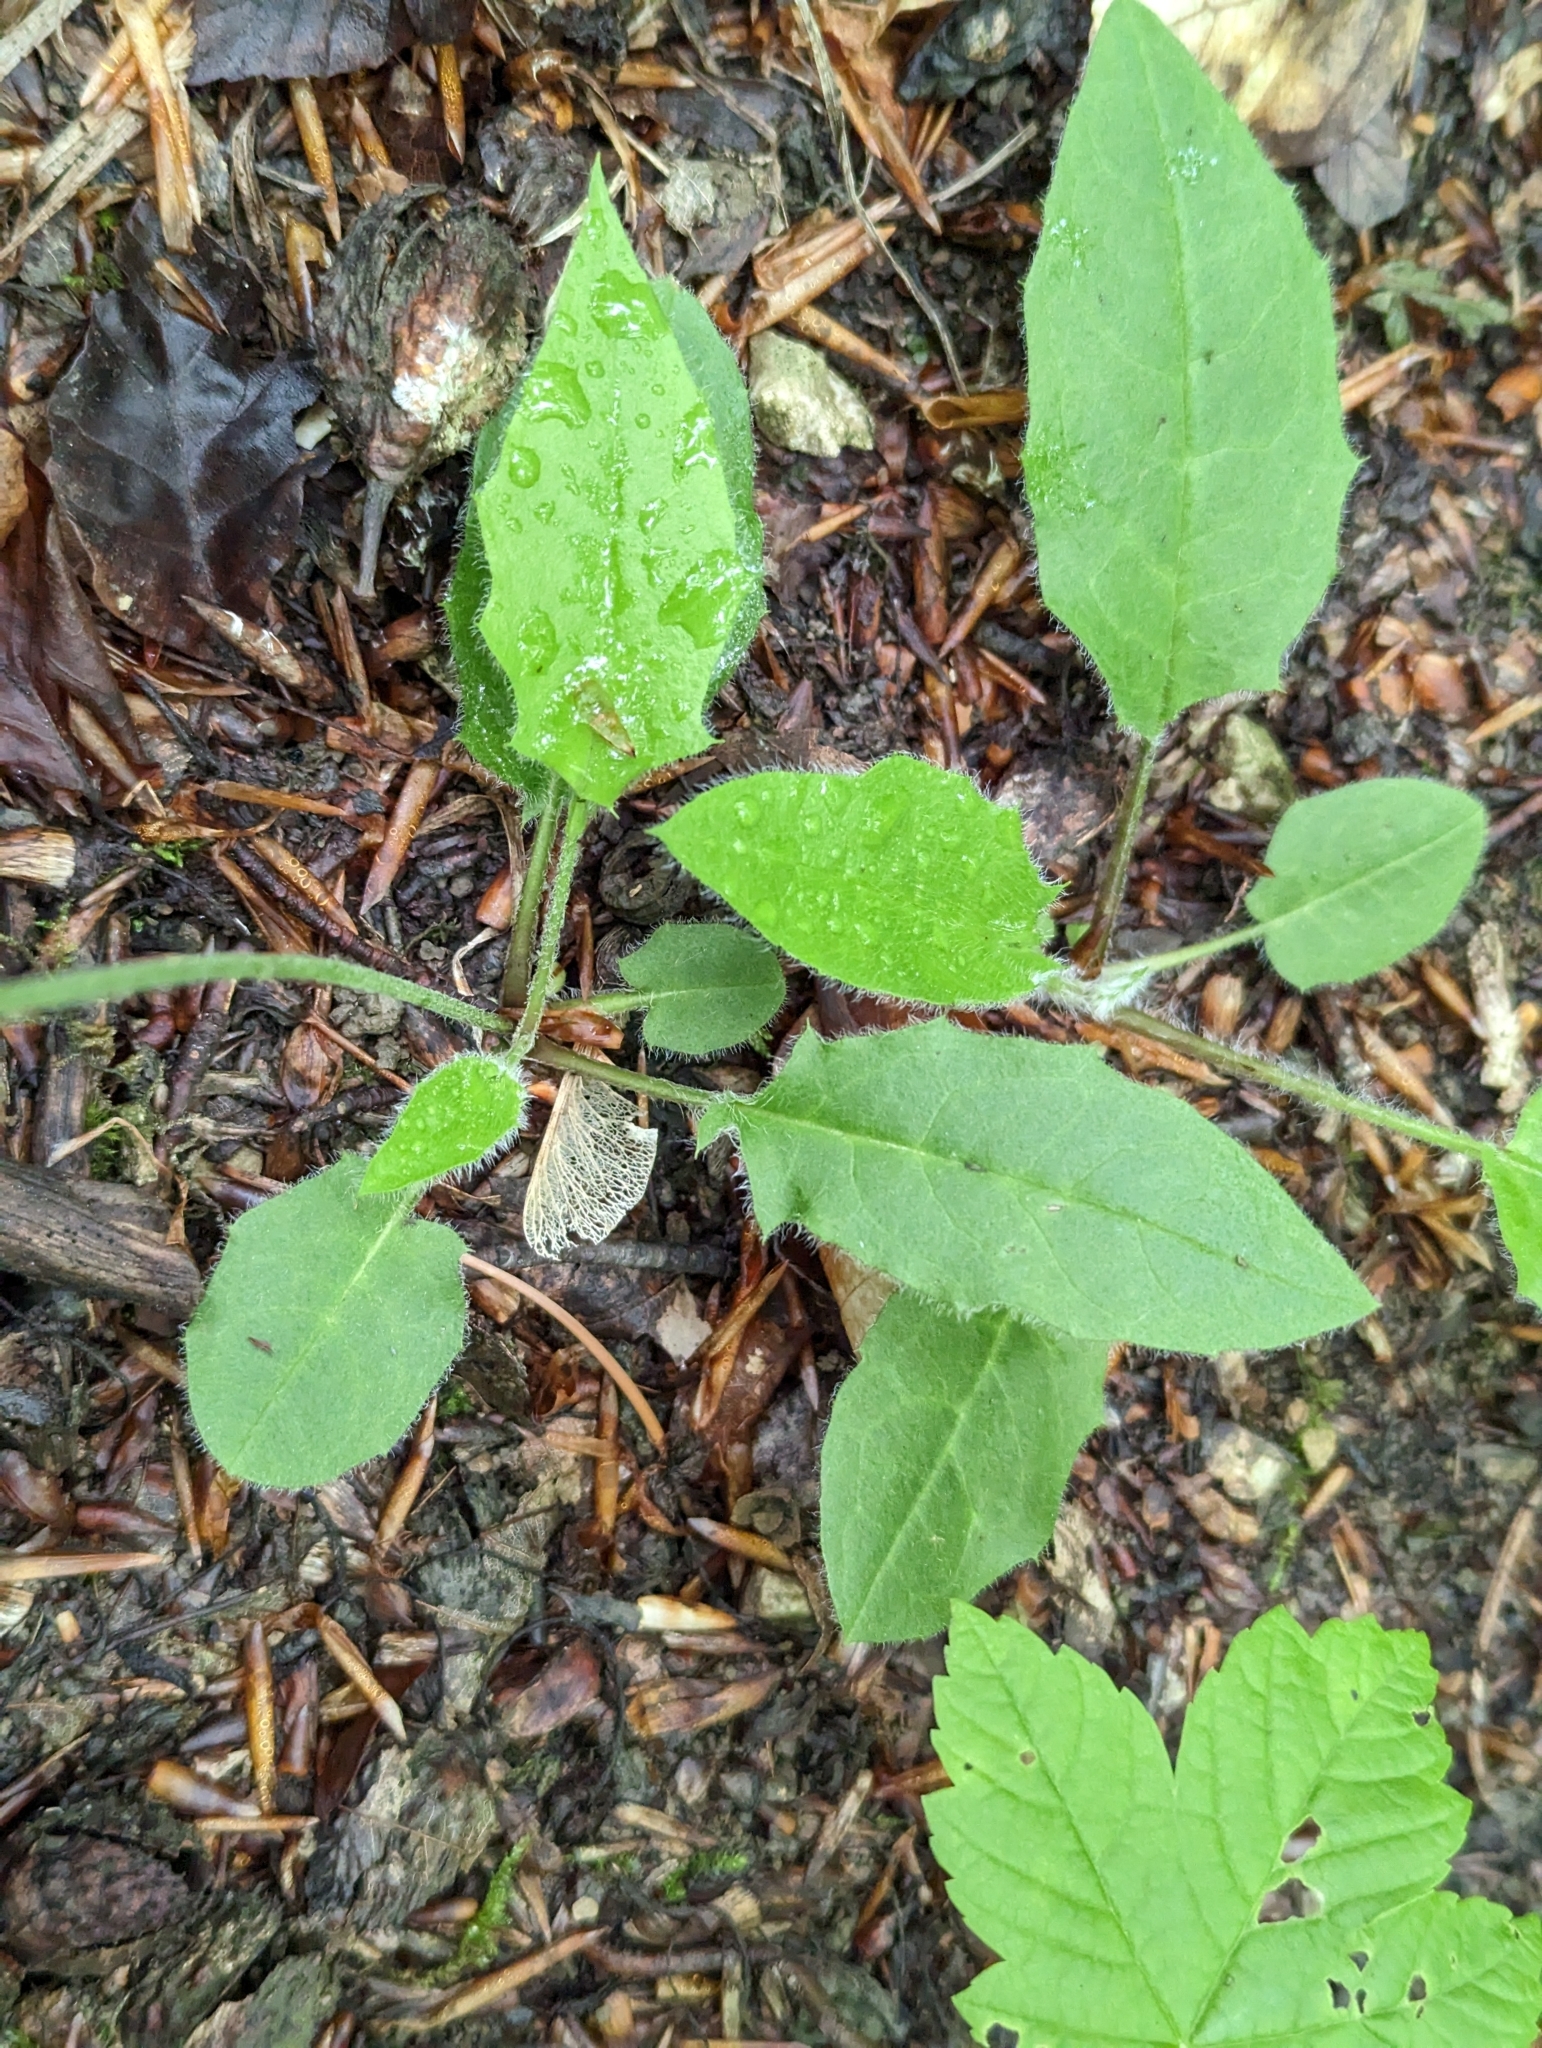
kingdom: Plantae
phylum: Tracheophyta
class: Magnoliopsida
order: Asterales
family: Asteraceae
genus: Hieracium
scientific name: Hieracium murorum
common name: Wall hawkweed
